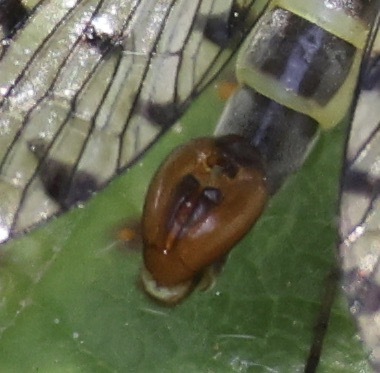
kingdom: Animalia
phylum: Arthropoda
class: Insecta
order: Mecoptera
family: Panorpidae
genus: Panorpa
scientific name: Panorpa germanica
